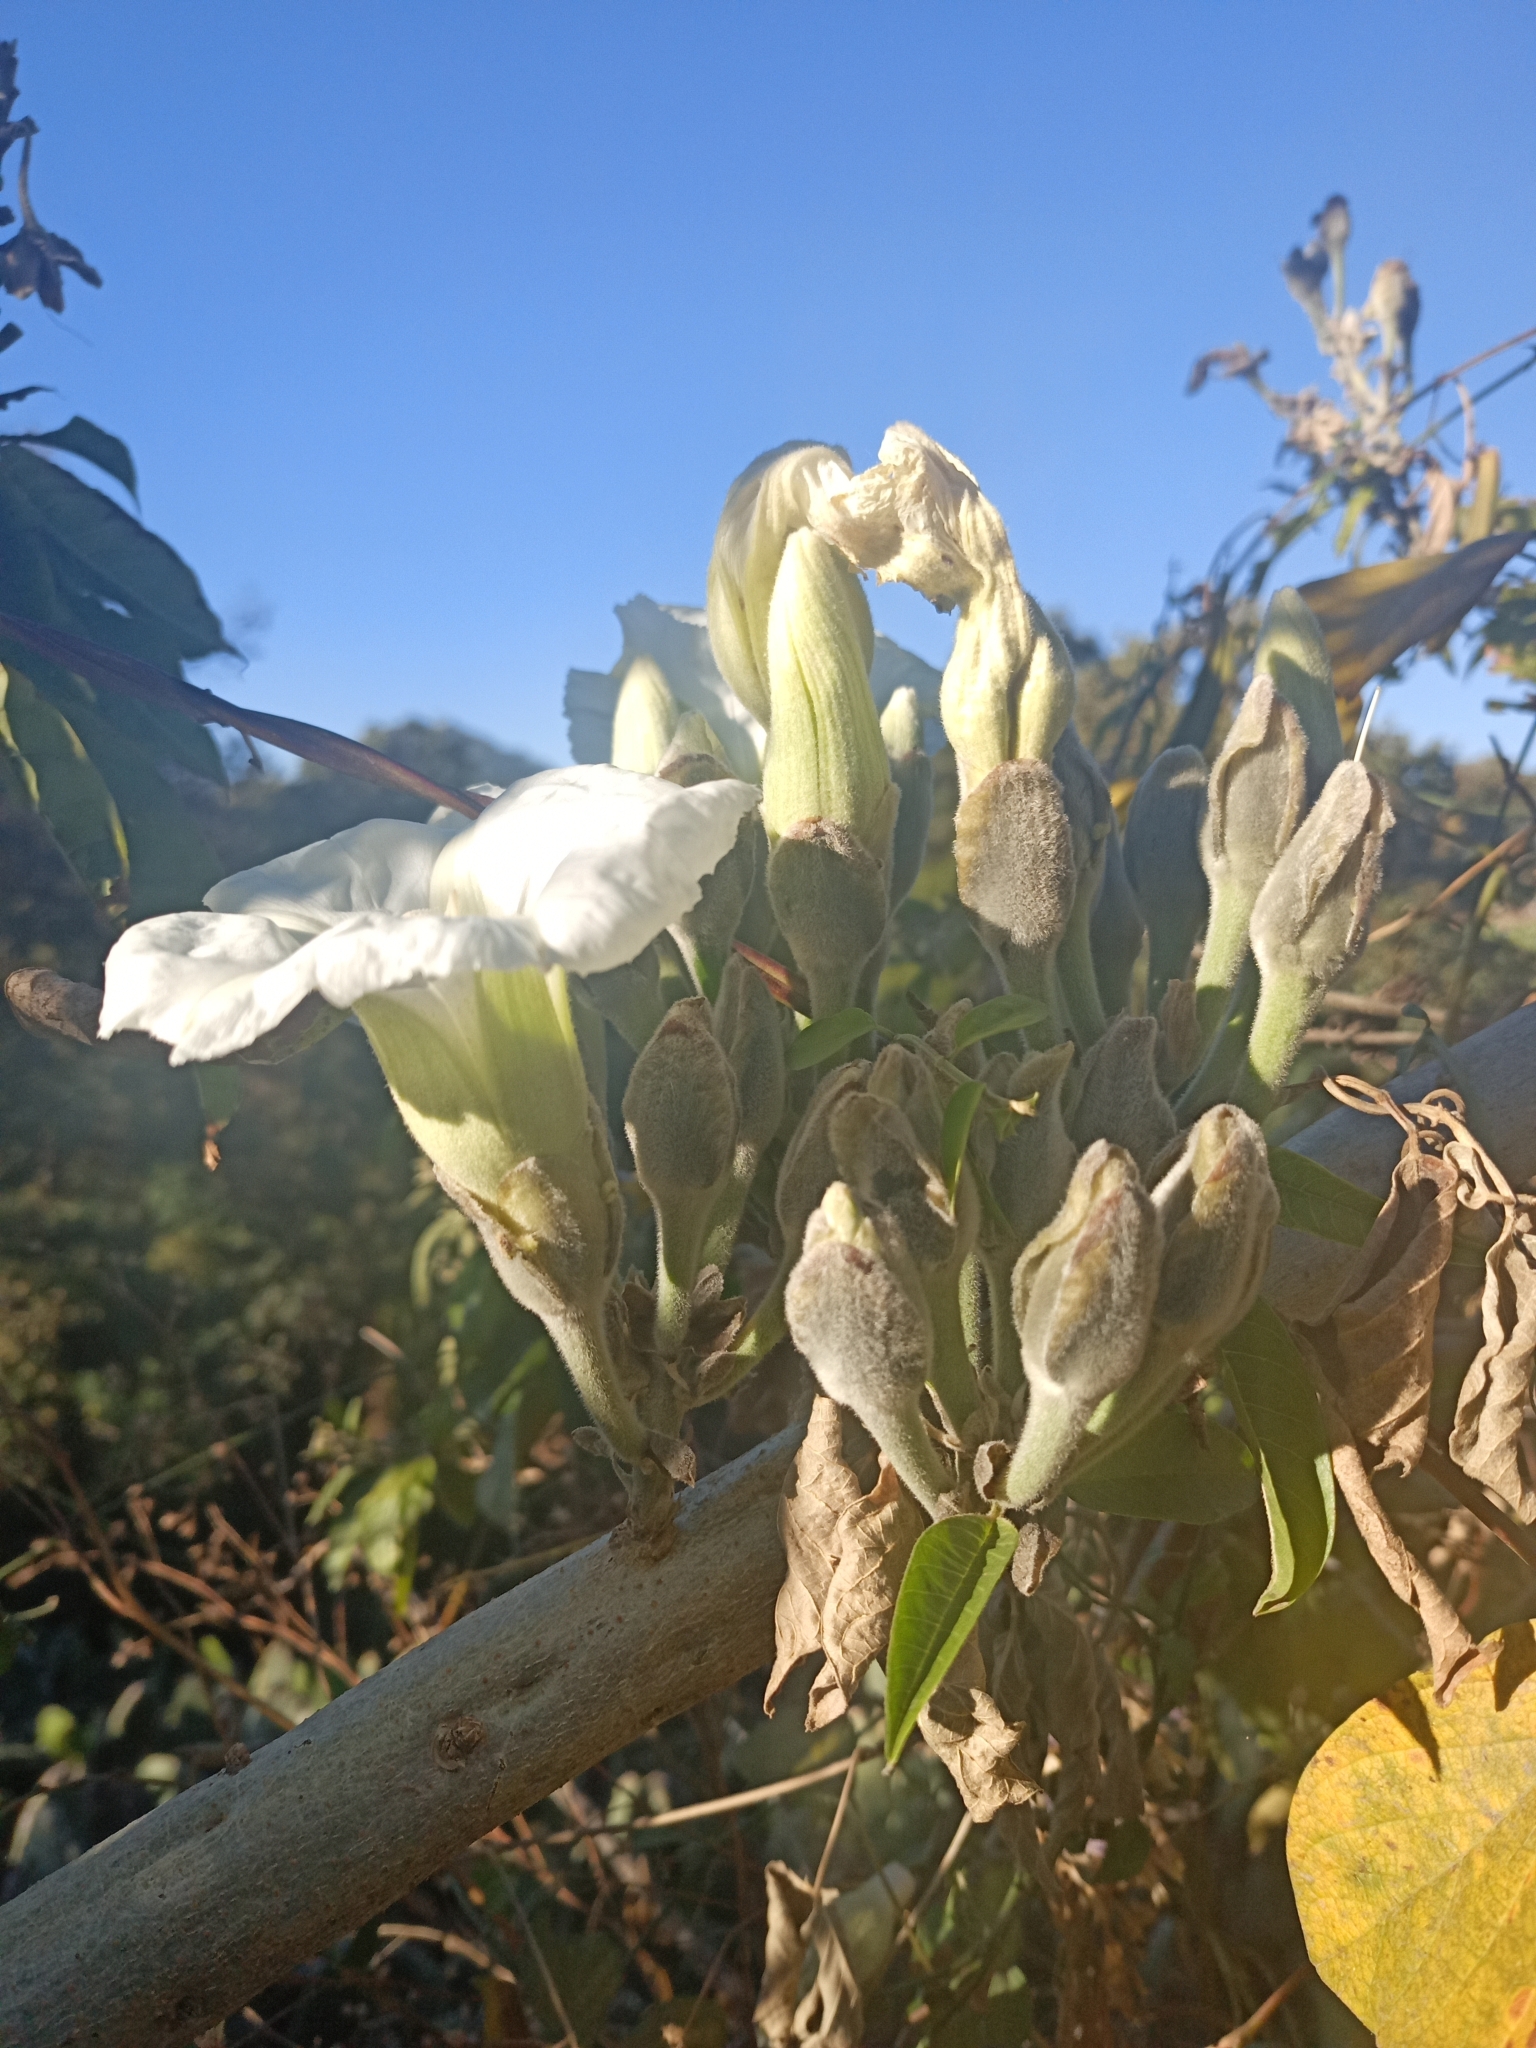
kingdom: Plantae
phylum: Tracheophyta
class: Magnoliopsida
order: Solanales
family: Convolvulaceae
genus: Ipomoea
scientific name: Ipomoea murucoides
